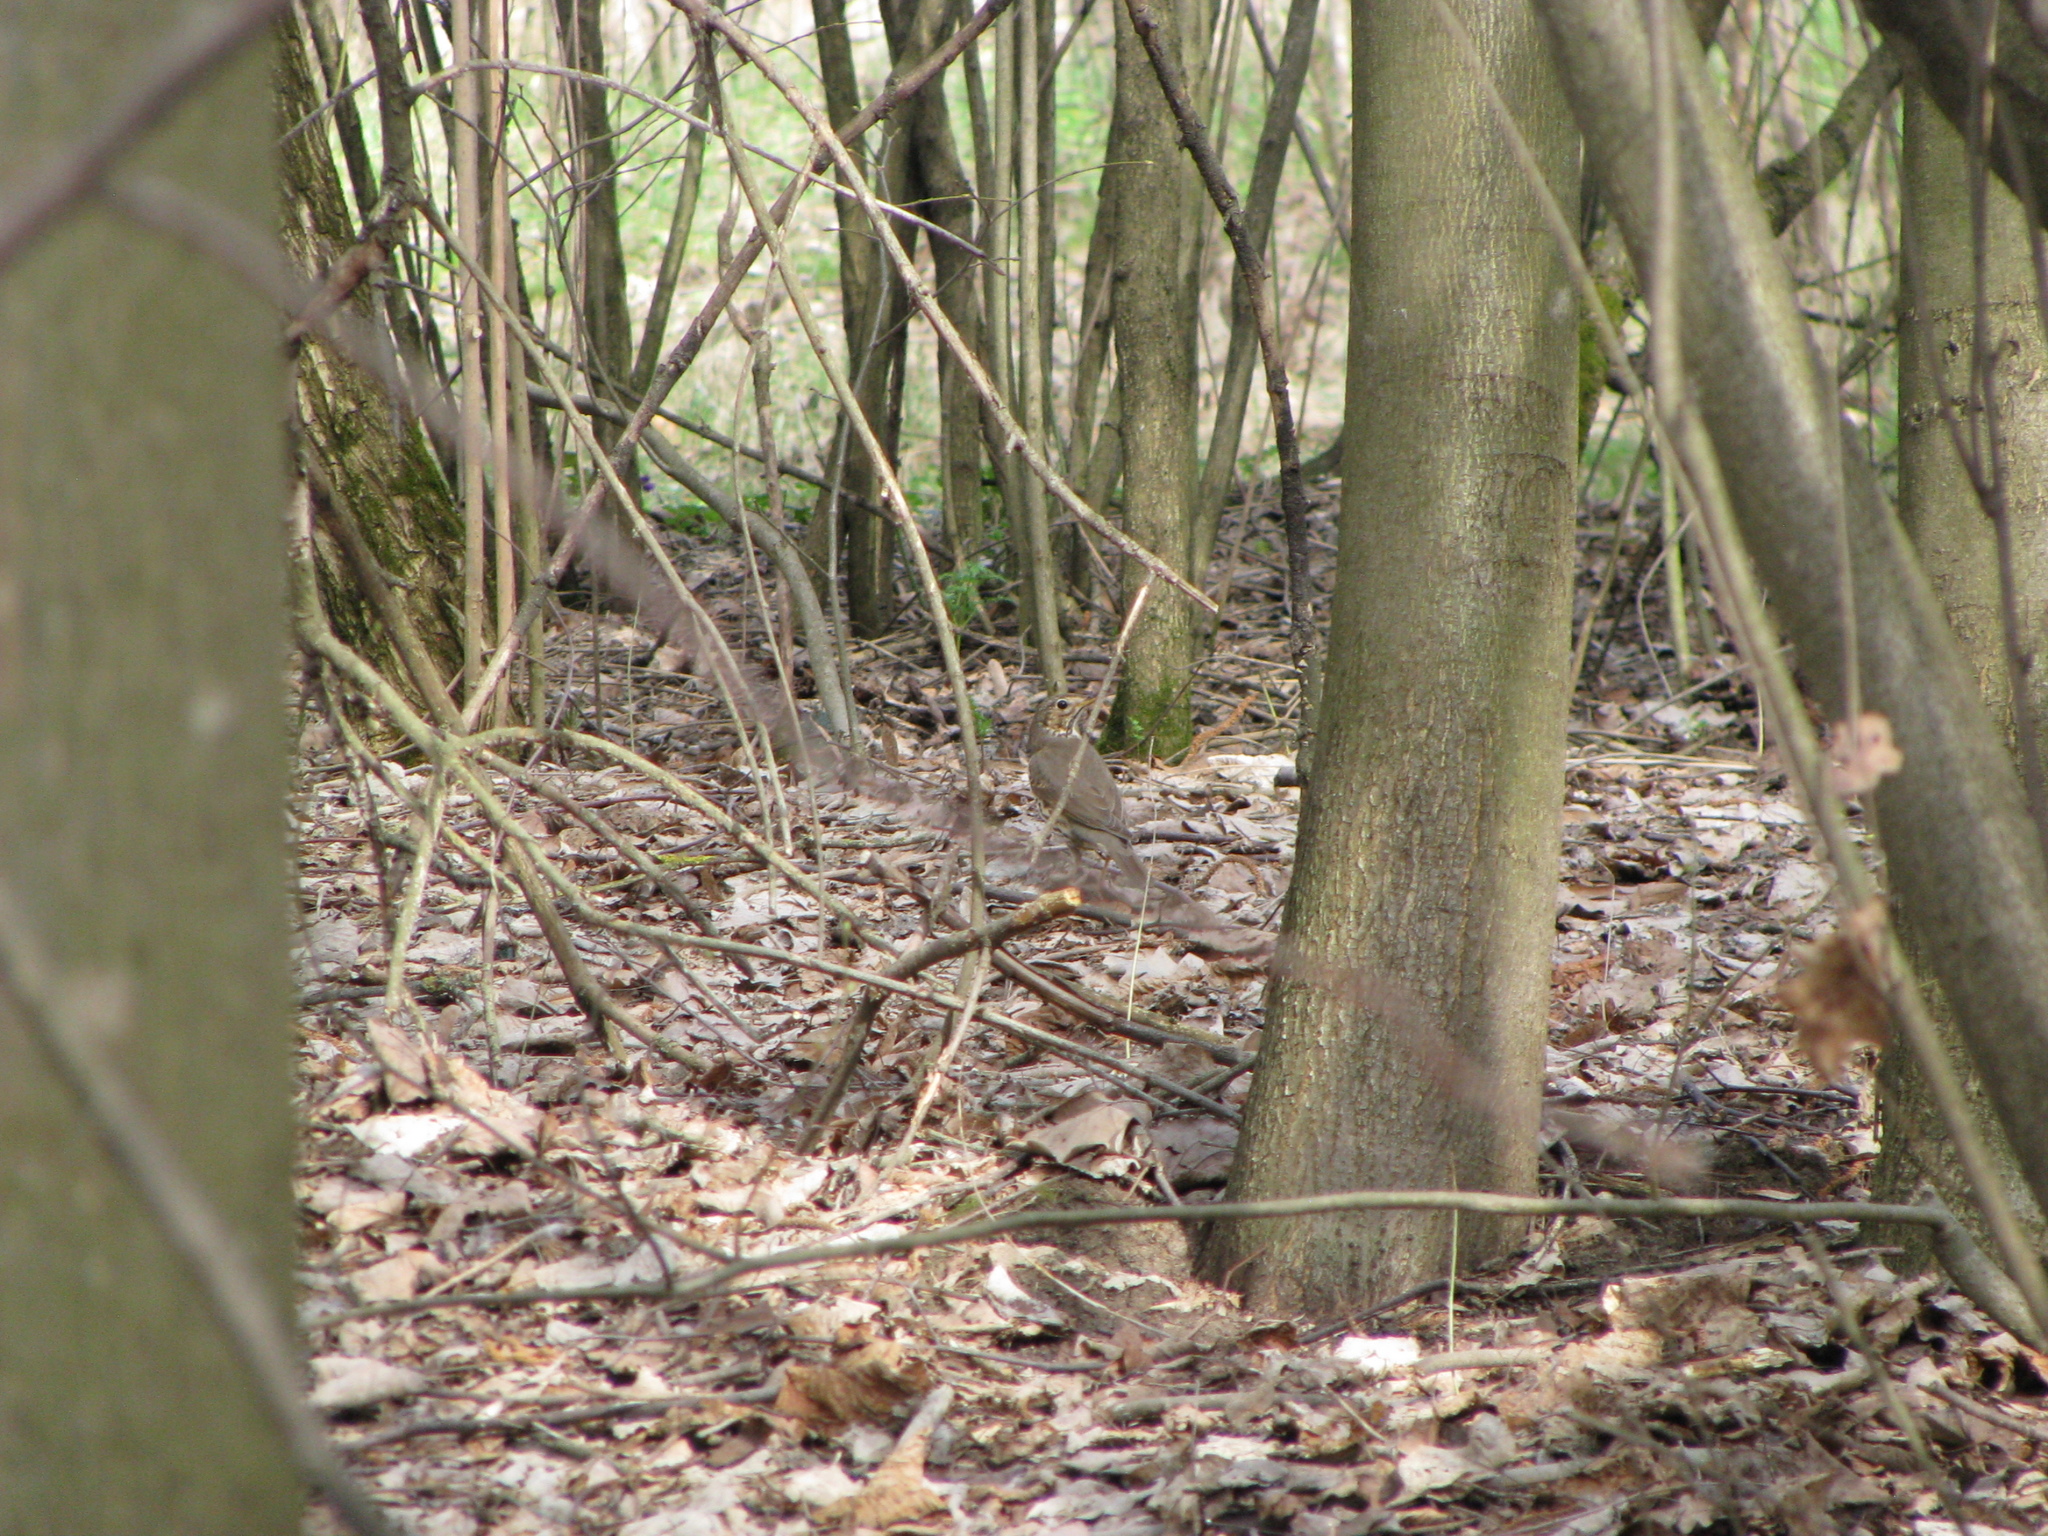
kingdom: Animalia
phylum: Chordata
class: Aves
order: Passeriformes
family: Turdidae
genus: Turdus
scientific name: Turdus philomelos
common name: Song thrush
